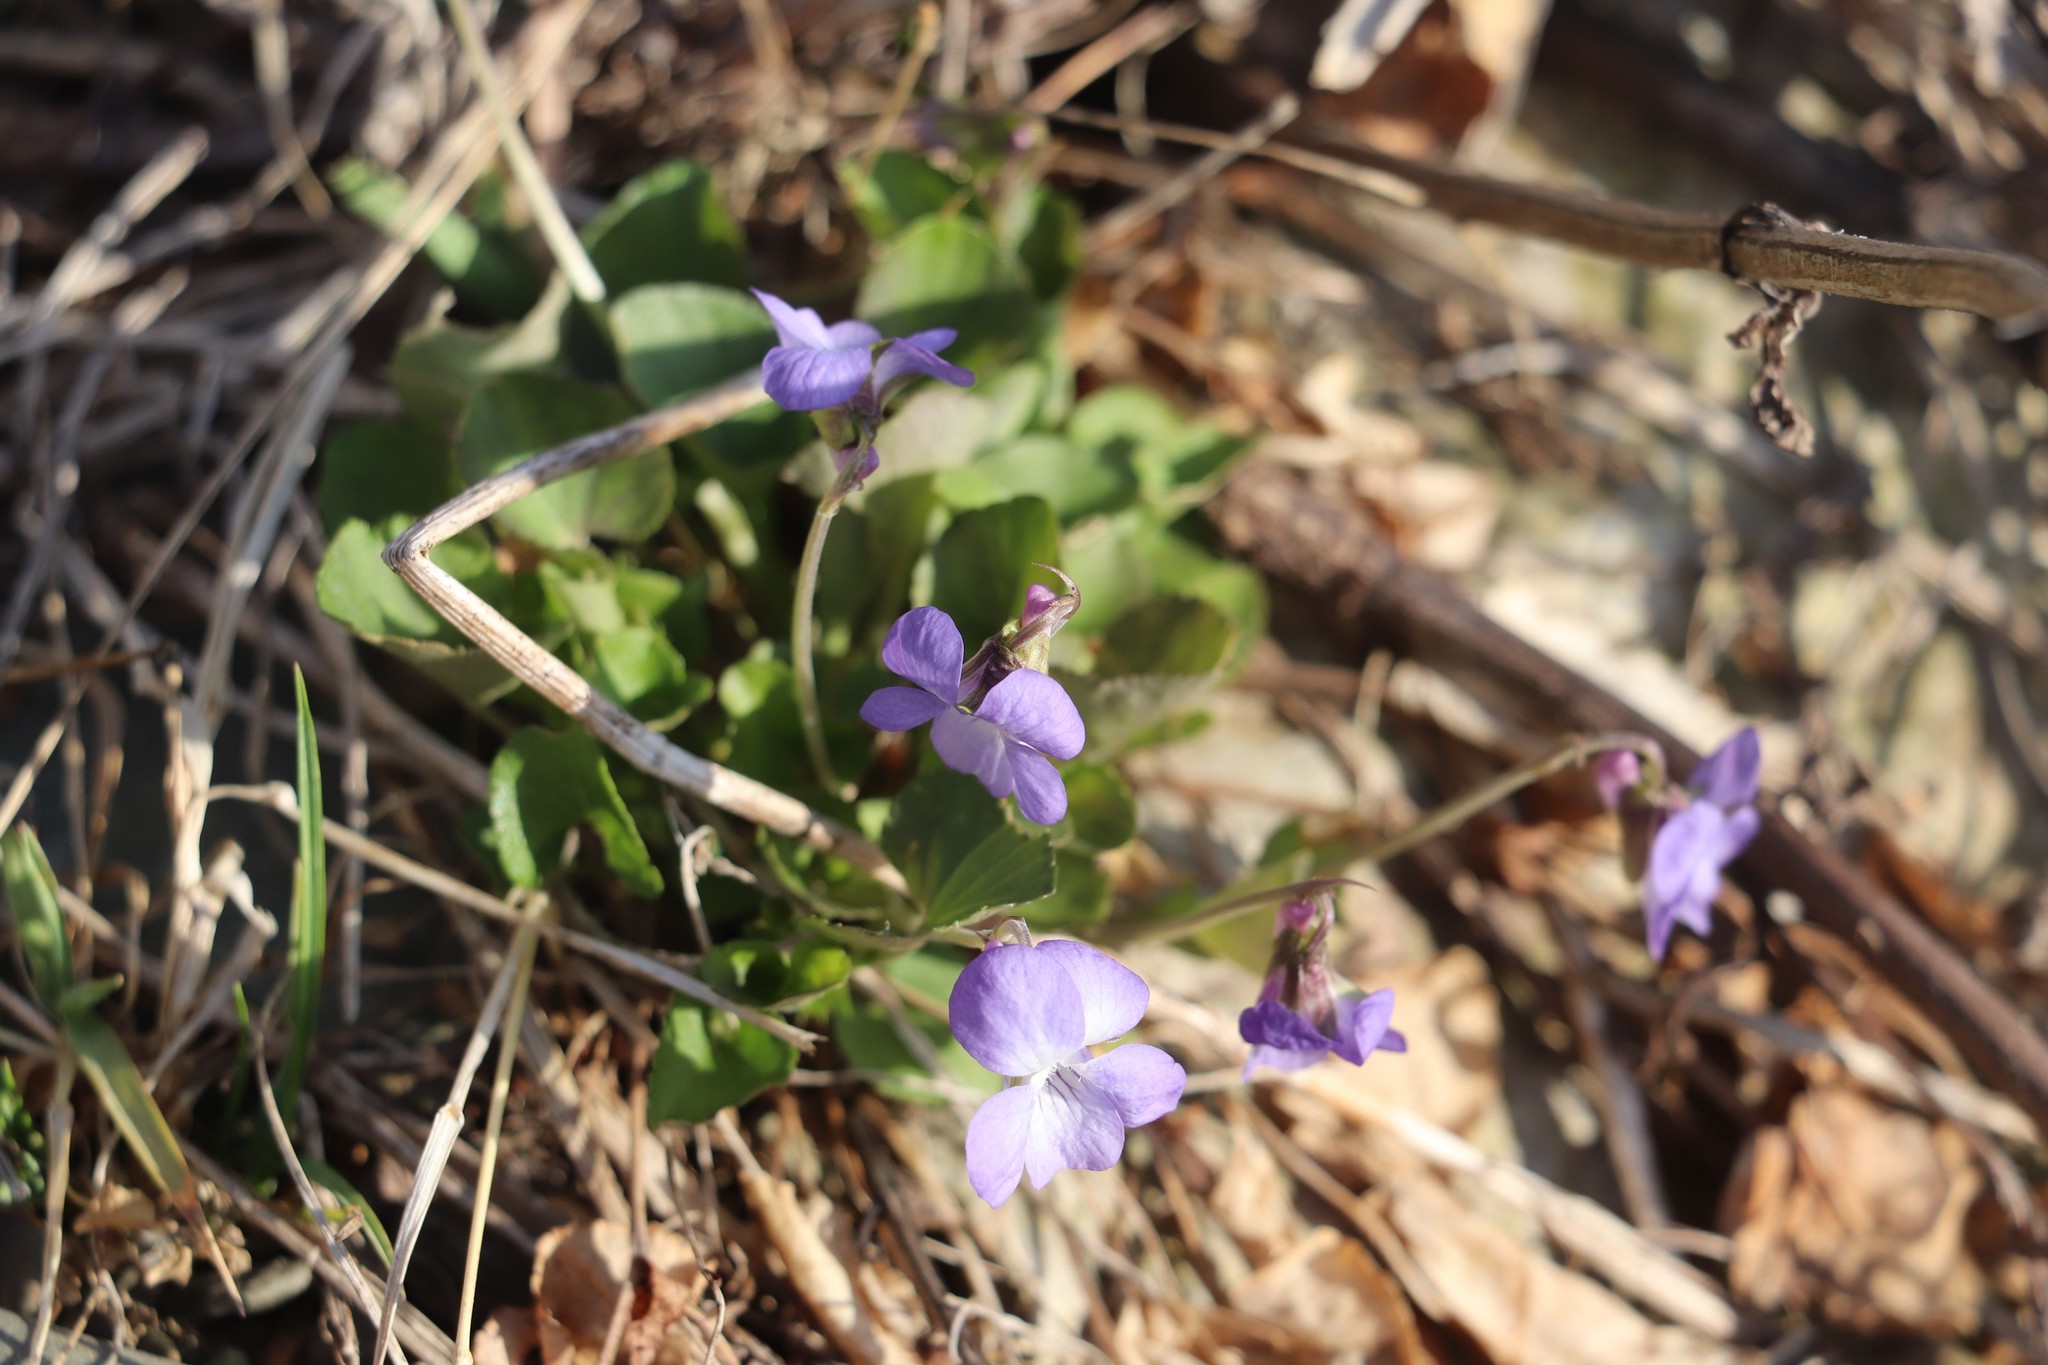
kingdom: Plantae
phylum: Tracheophyta
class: Magnoliopsida
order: Malpighiales
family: Violaceae
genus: Viola
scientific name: Viola rupestris
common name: Teesdale violet
